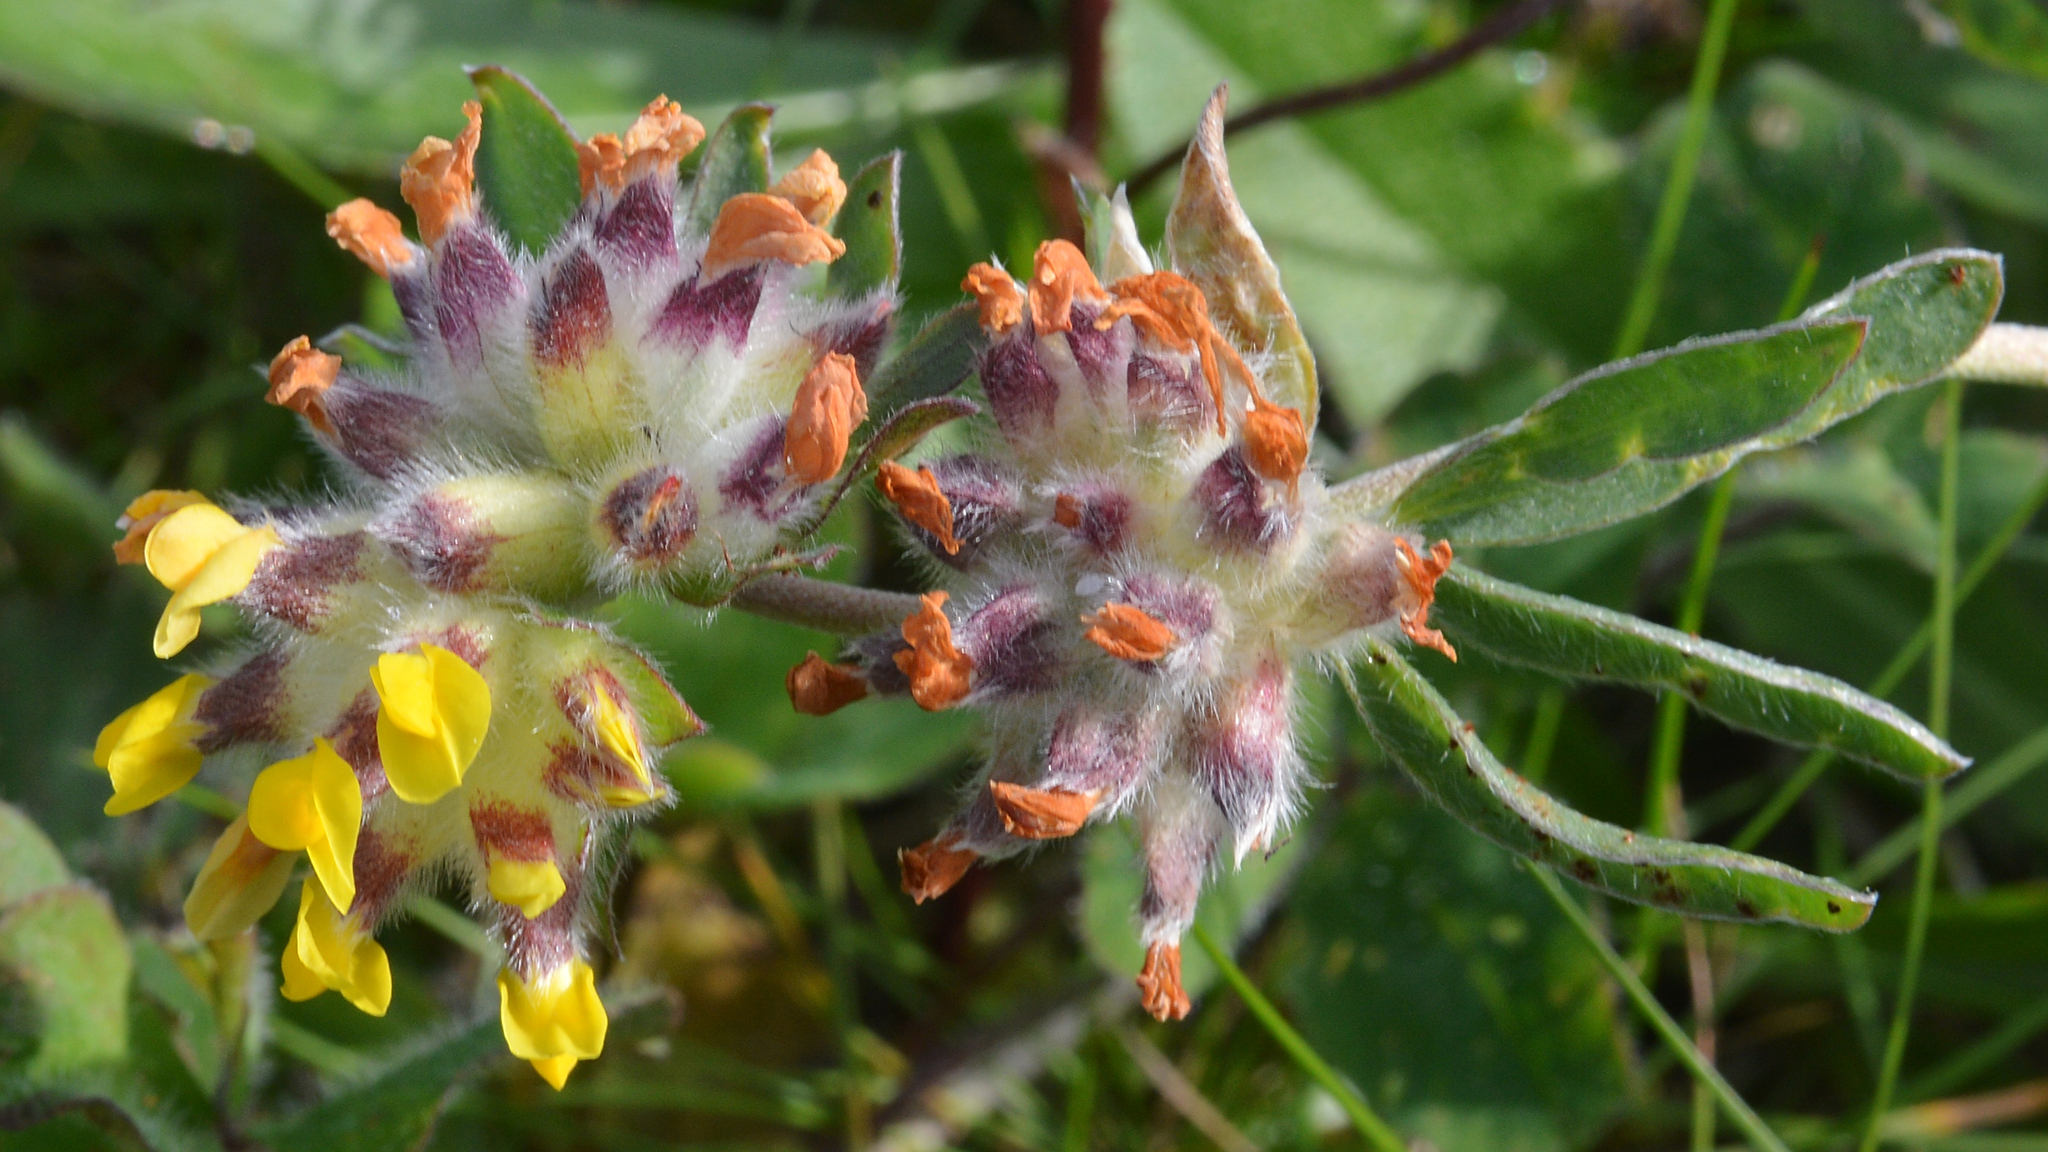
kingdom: Plantae
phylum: Tracheophyta
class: Magnoliopsida
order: Fabales
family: Fabaceae
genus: Anthyllis
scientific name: Anthyllis vulneraria
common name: Kidney vetch
